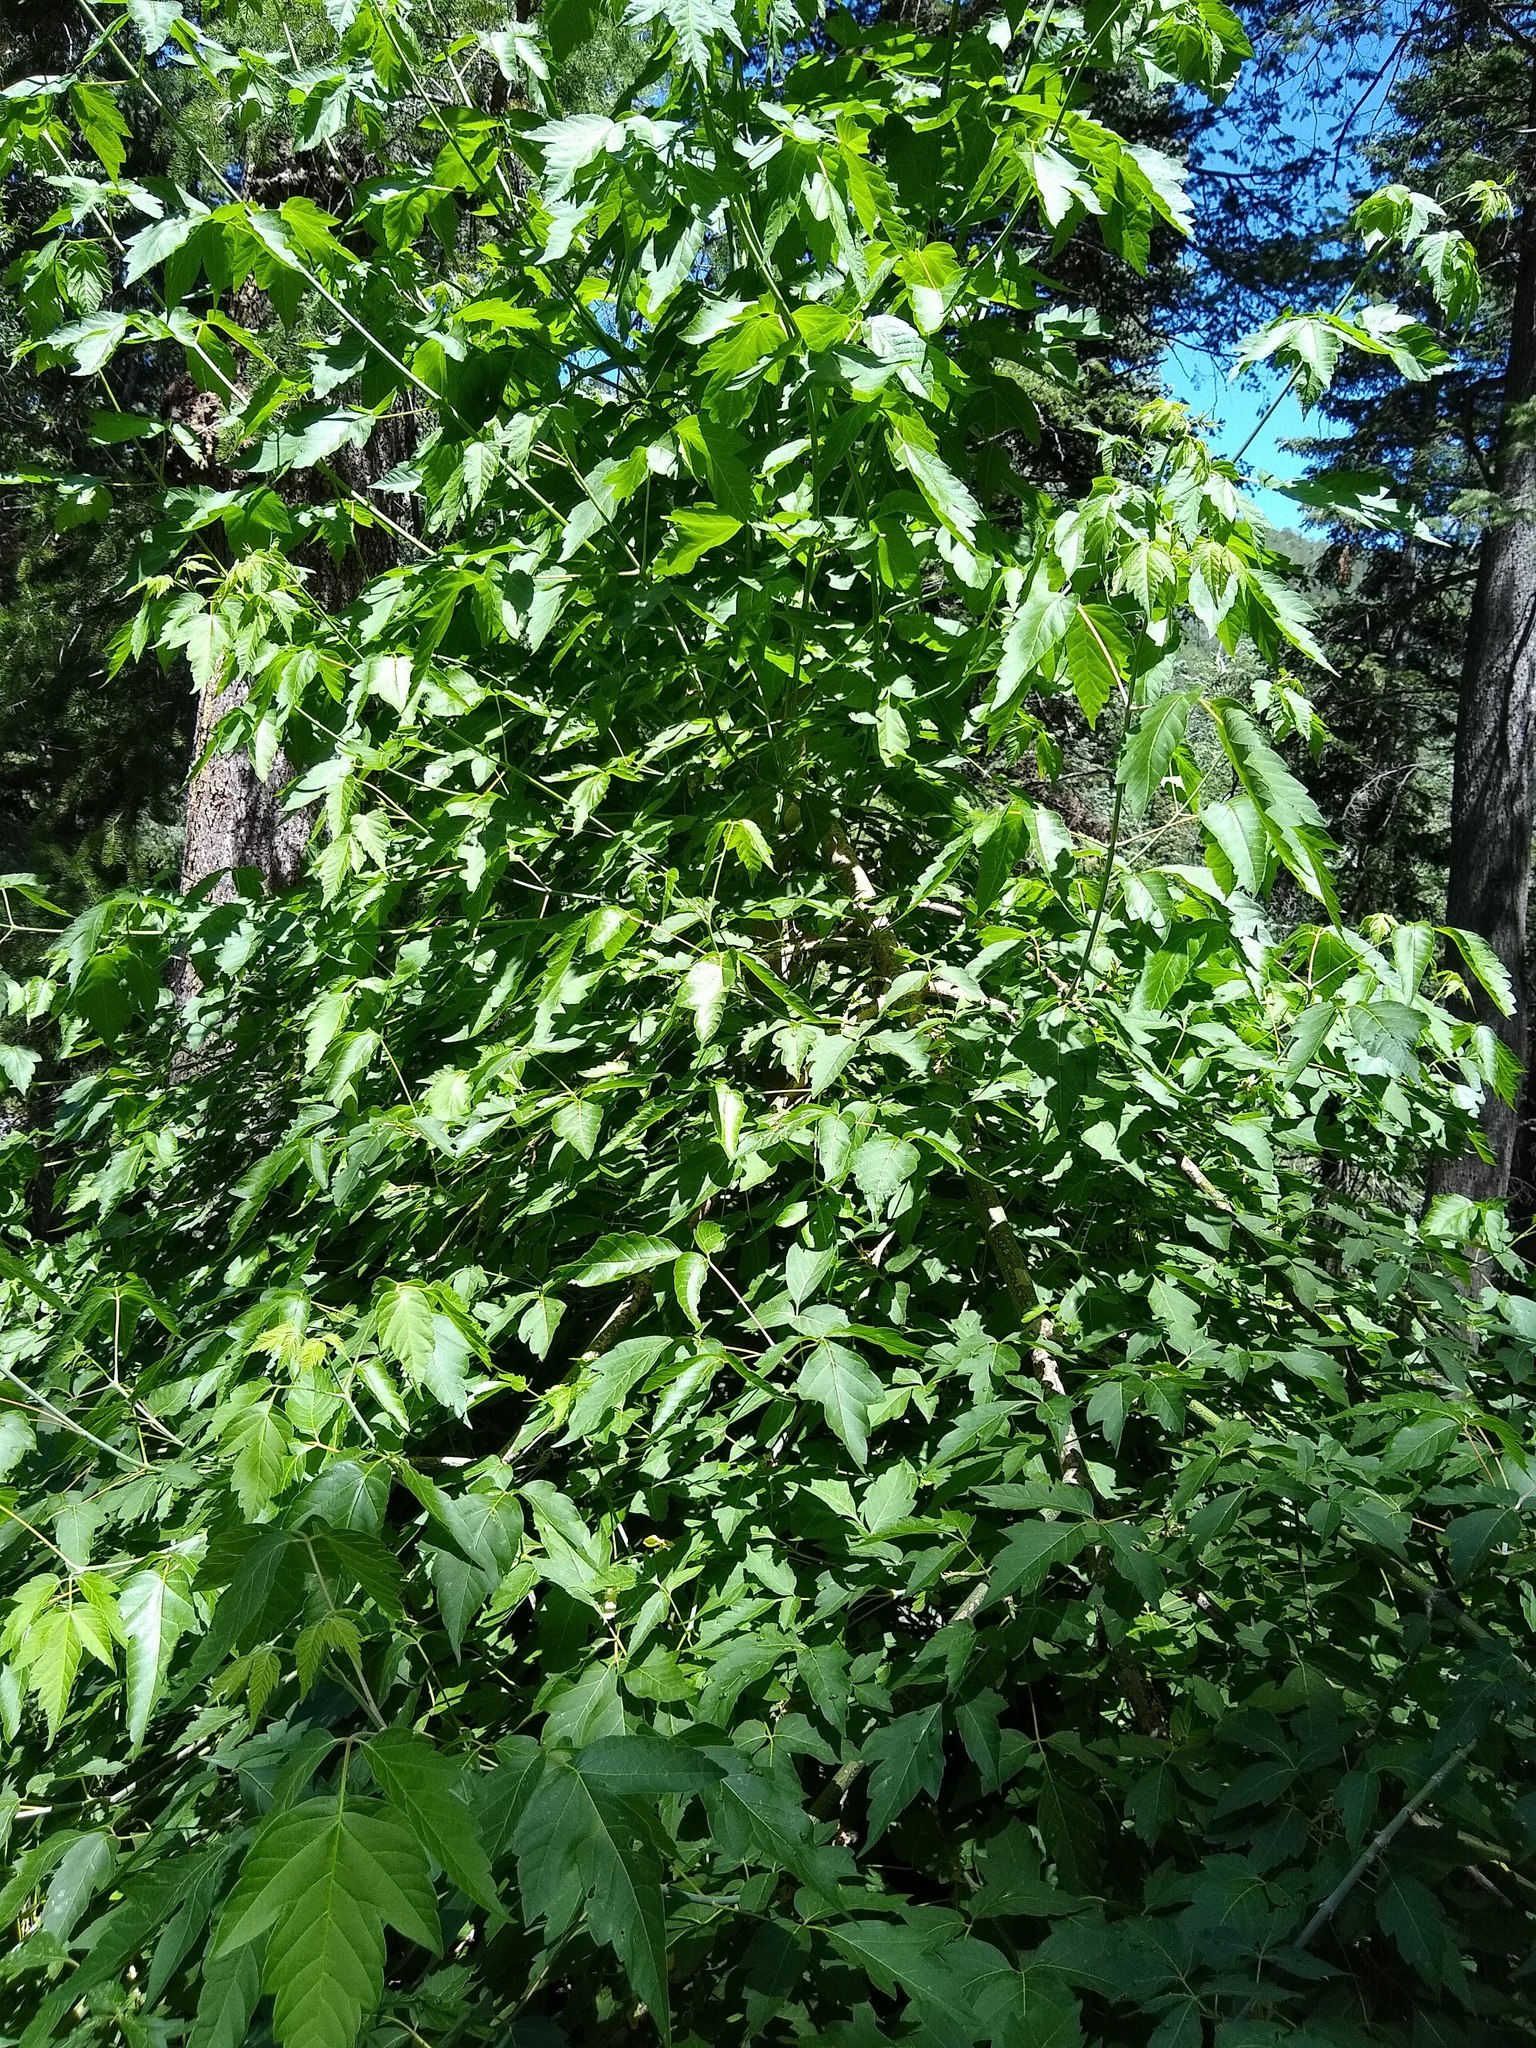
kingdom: Plantae
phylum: Tracheophyta
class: Magnoliopsida
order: Sapindales
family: Sapindaceae
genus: Acer
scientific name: Acer negundo
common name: Ashleaf maple
